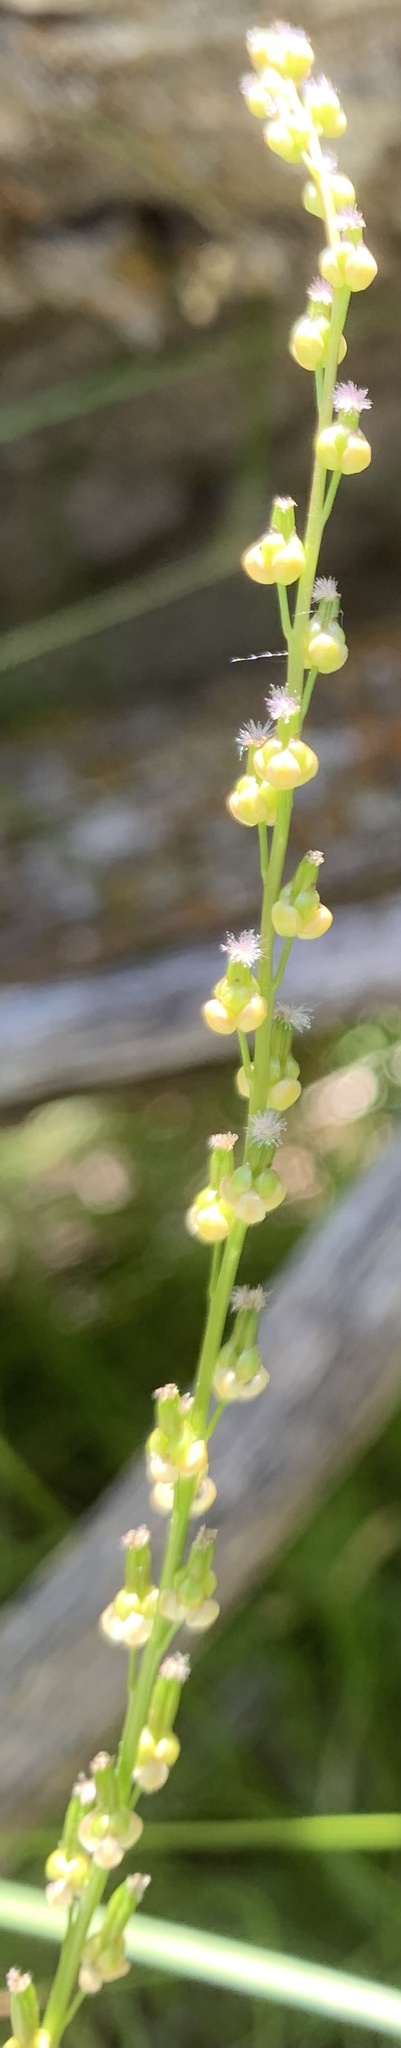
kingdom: Plantae
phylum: Tracheophyta
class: Liliopsida
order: Alismatales
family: Juncaginaceae
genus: Triglochin
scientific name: Triglochin palustris
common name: Marsh arrowgrass
